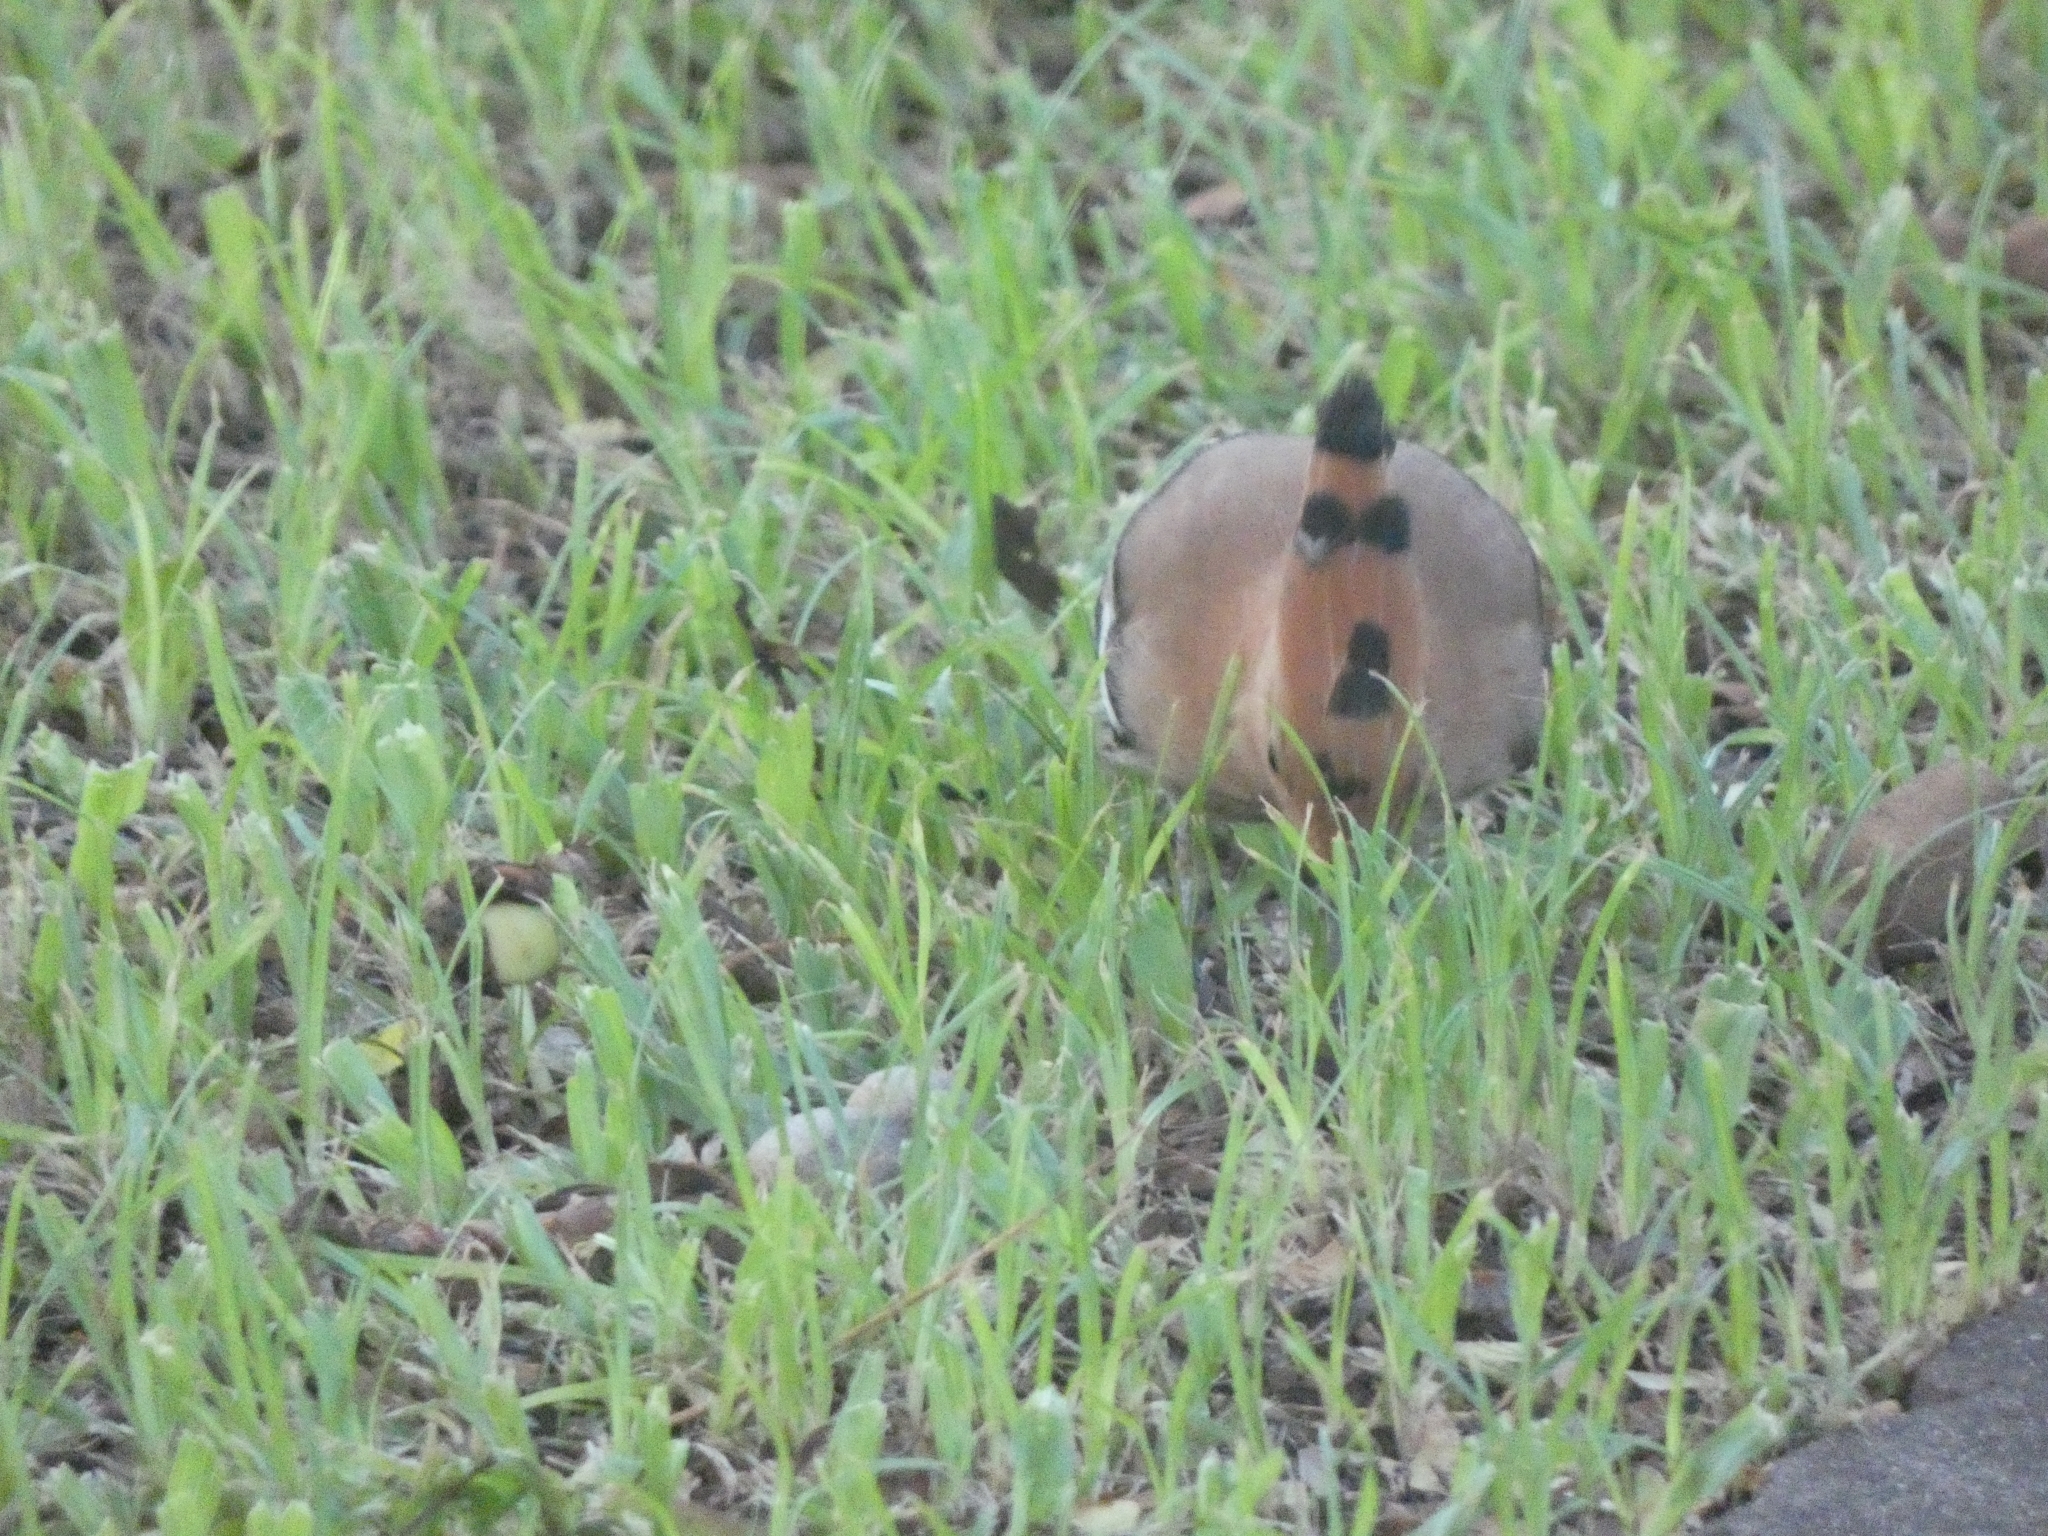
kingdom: Animalia
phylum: Chordata
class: Aves
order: Bucerotiformes
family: Upupidae
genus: Upupa
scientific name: Upupa epops
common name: Eurasian hoopoe
